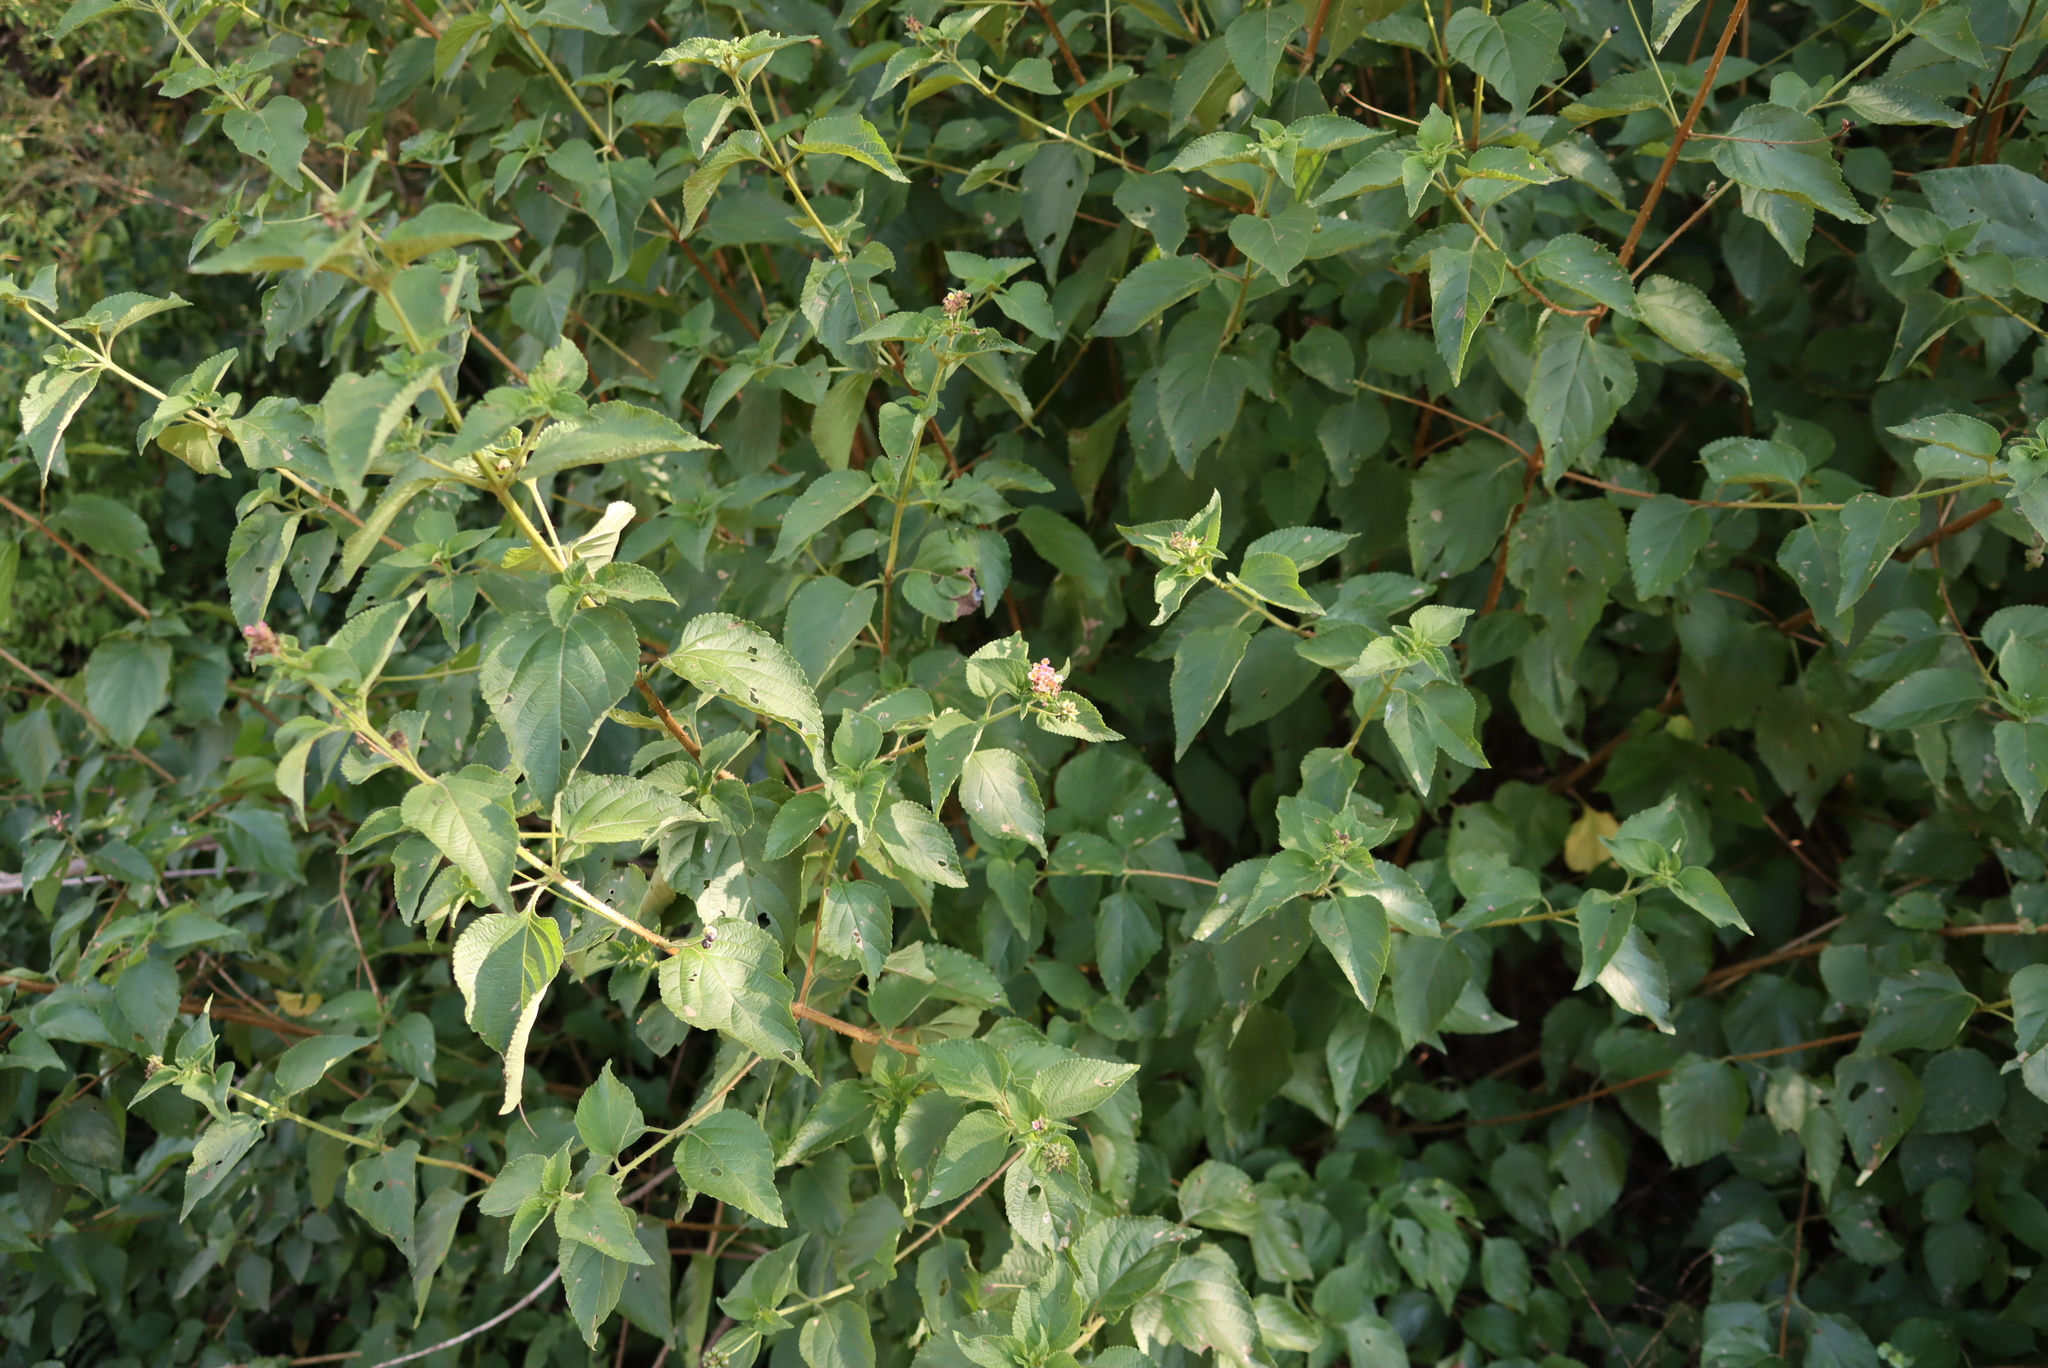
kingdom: Plantae
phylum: Tracheophyta
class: Magnoliopsida
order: Lamiales
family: Verbenaceae
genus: Lantana
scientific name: Lantana camara
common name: Lantana
